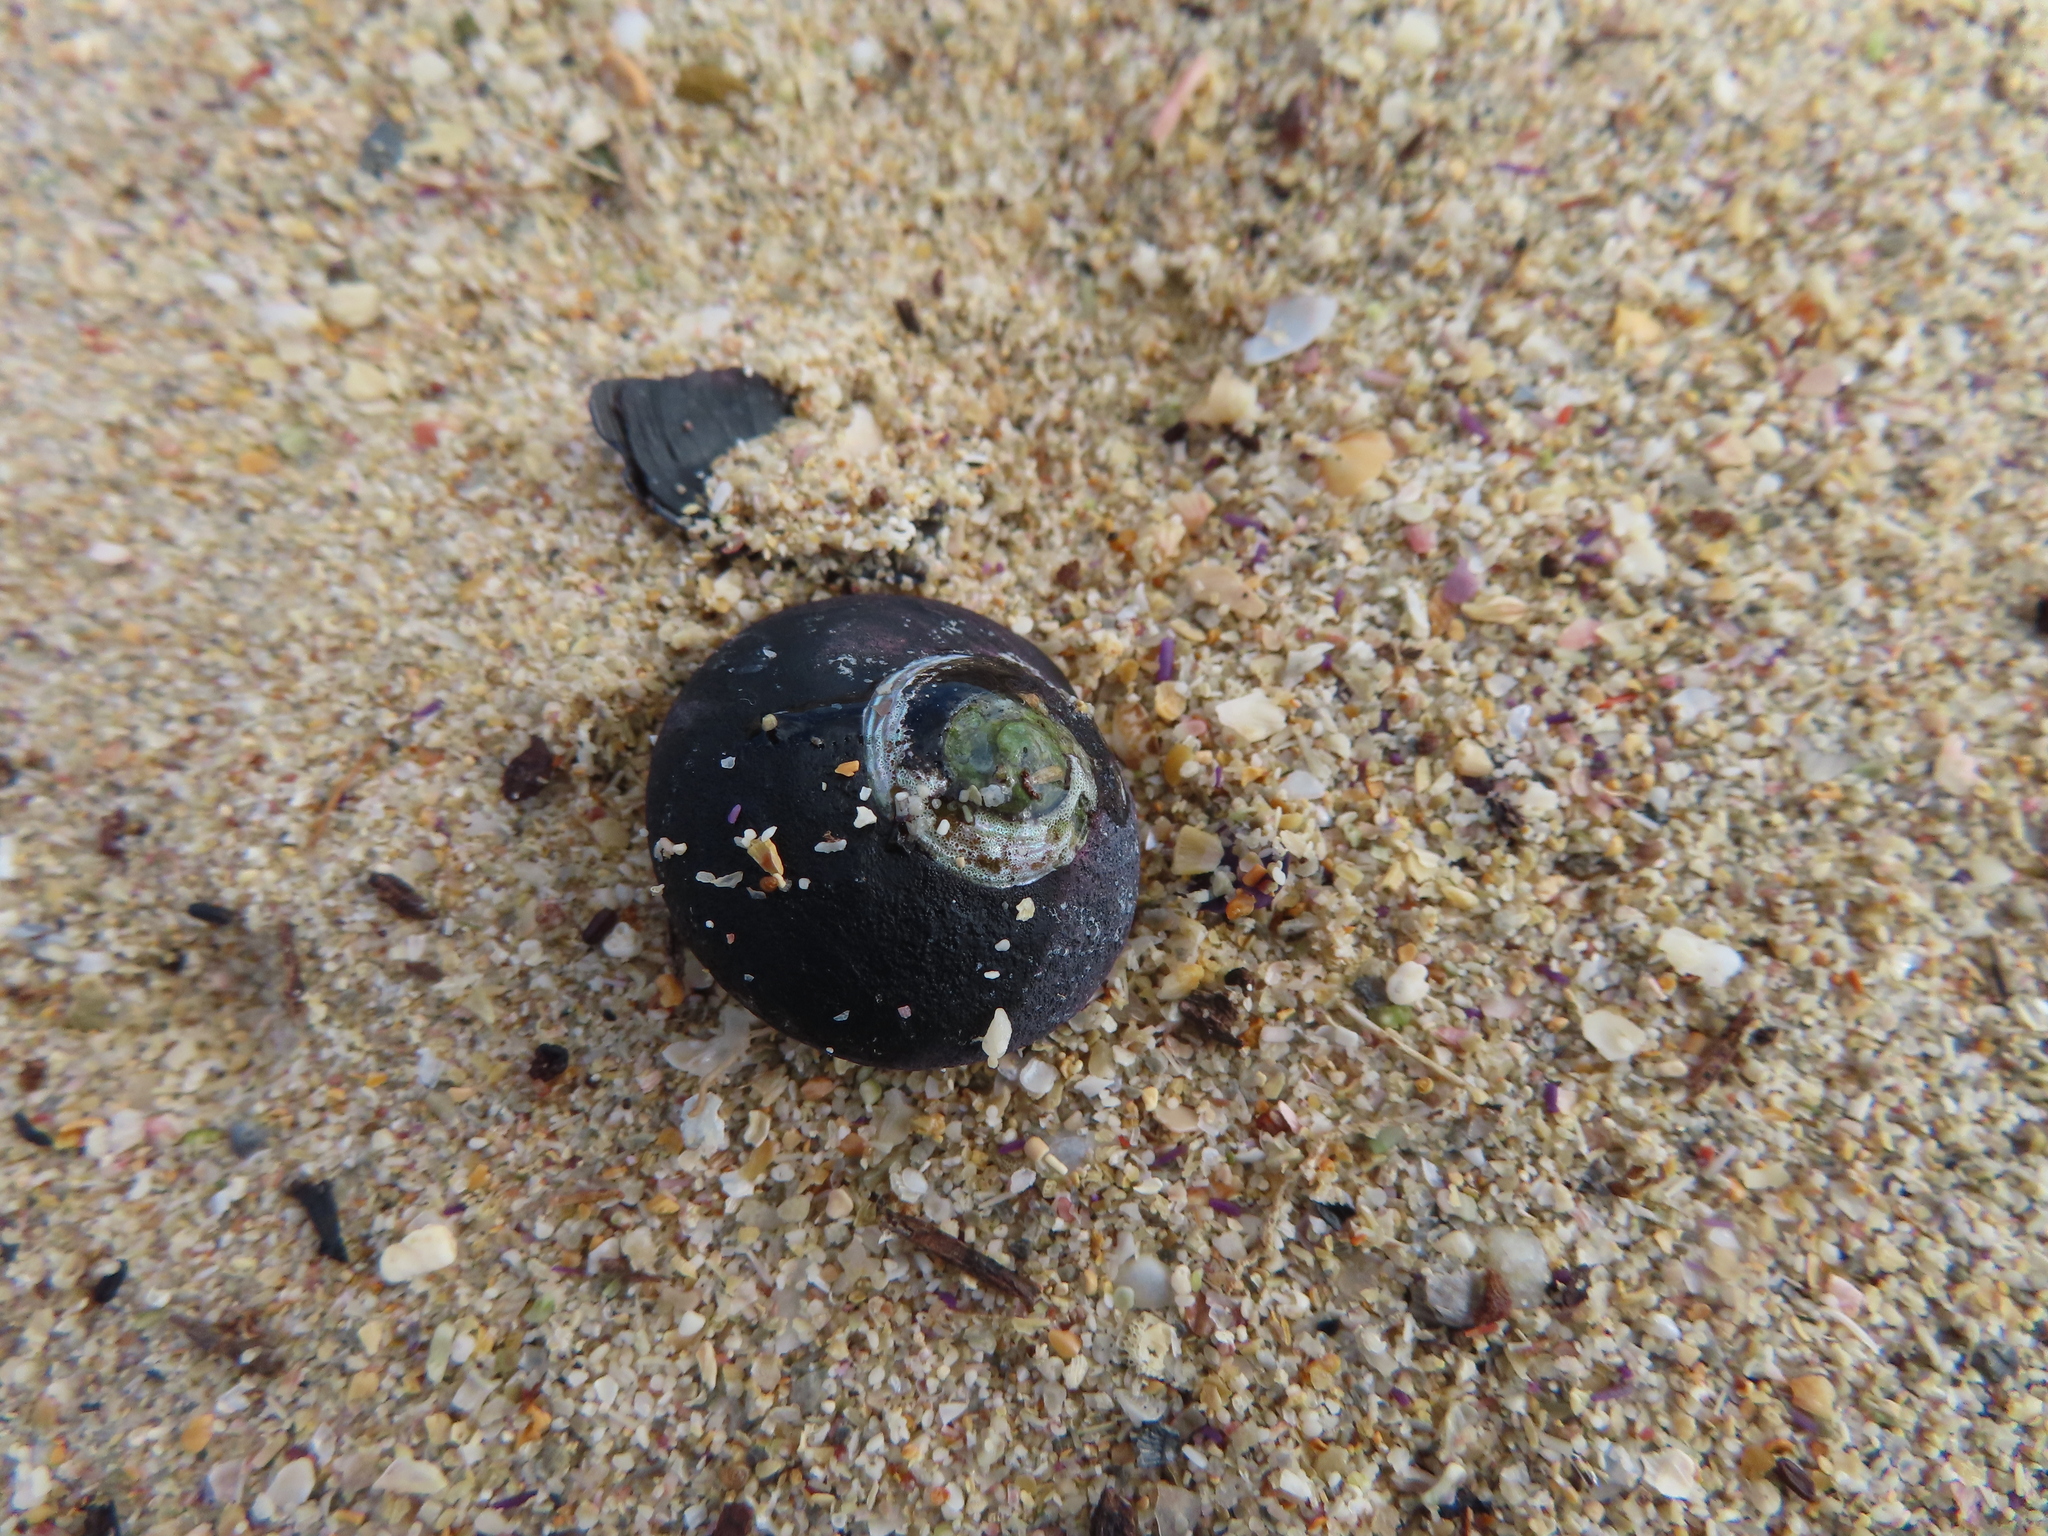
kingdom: Animalia
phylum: Mollusca
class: Gastropoda
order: Trochida
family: Trochidae
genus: Oxystele
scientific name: Oxystele sinensis
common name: Pink-lipped topshell
